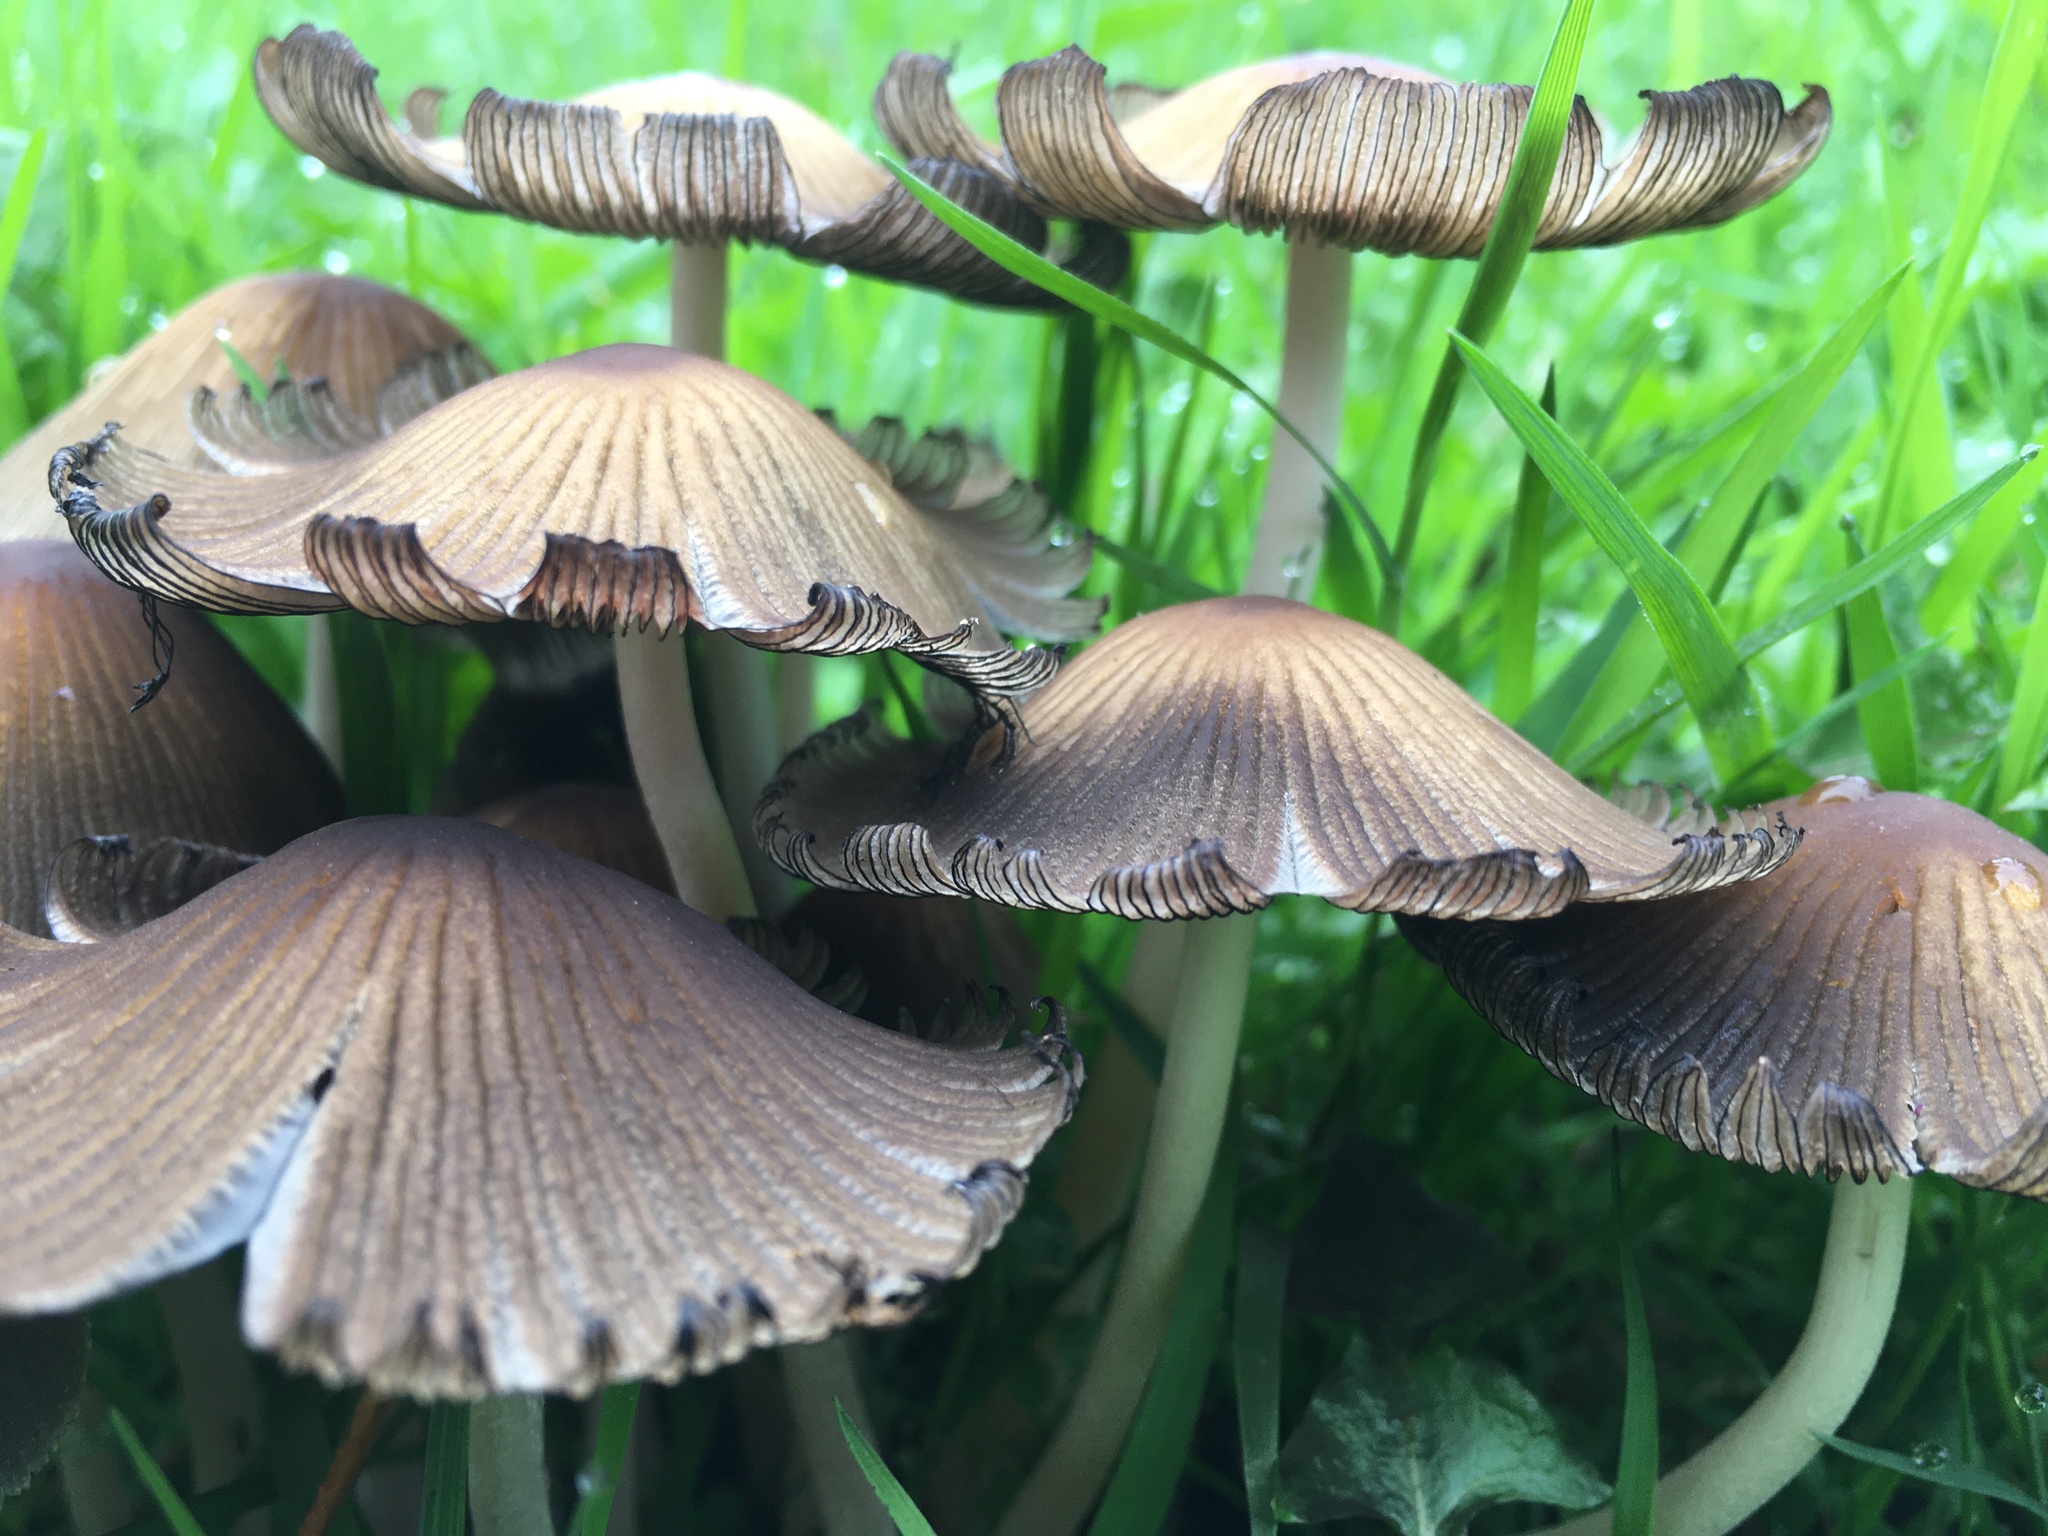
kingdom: Fungi
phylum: Basidiomycota
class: Agaricomycetes
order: Agaricales
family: Psathyrellaceae
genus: Coprinellus
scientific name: Coprinellus micaceus
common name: Glistening ink-cap
